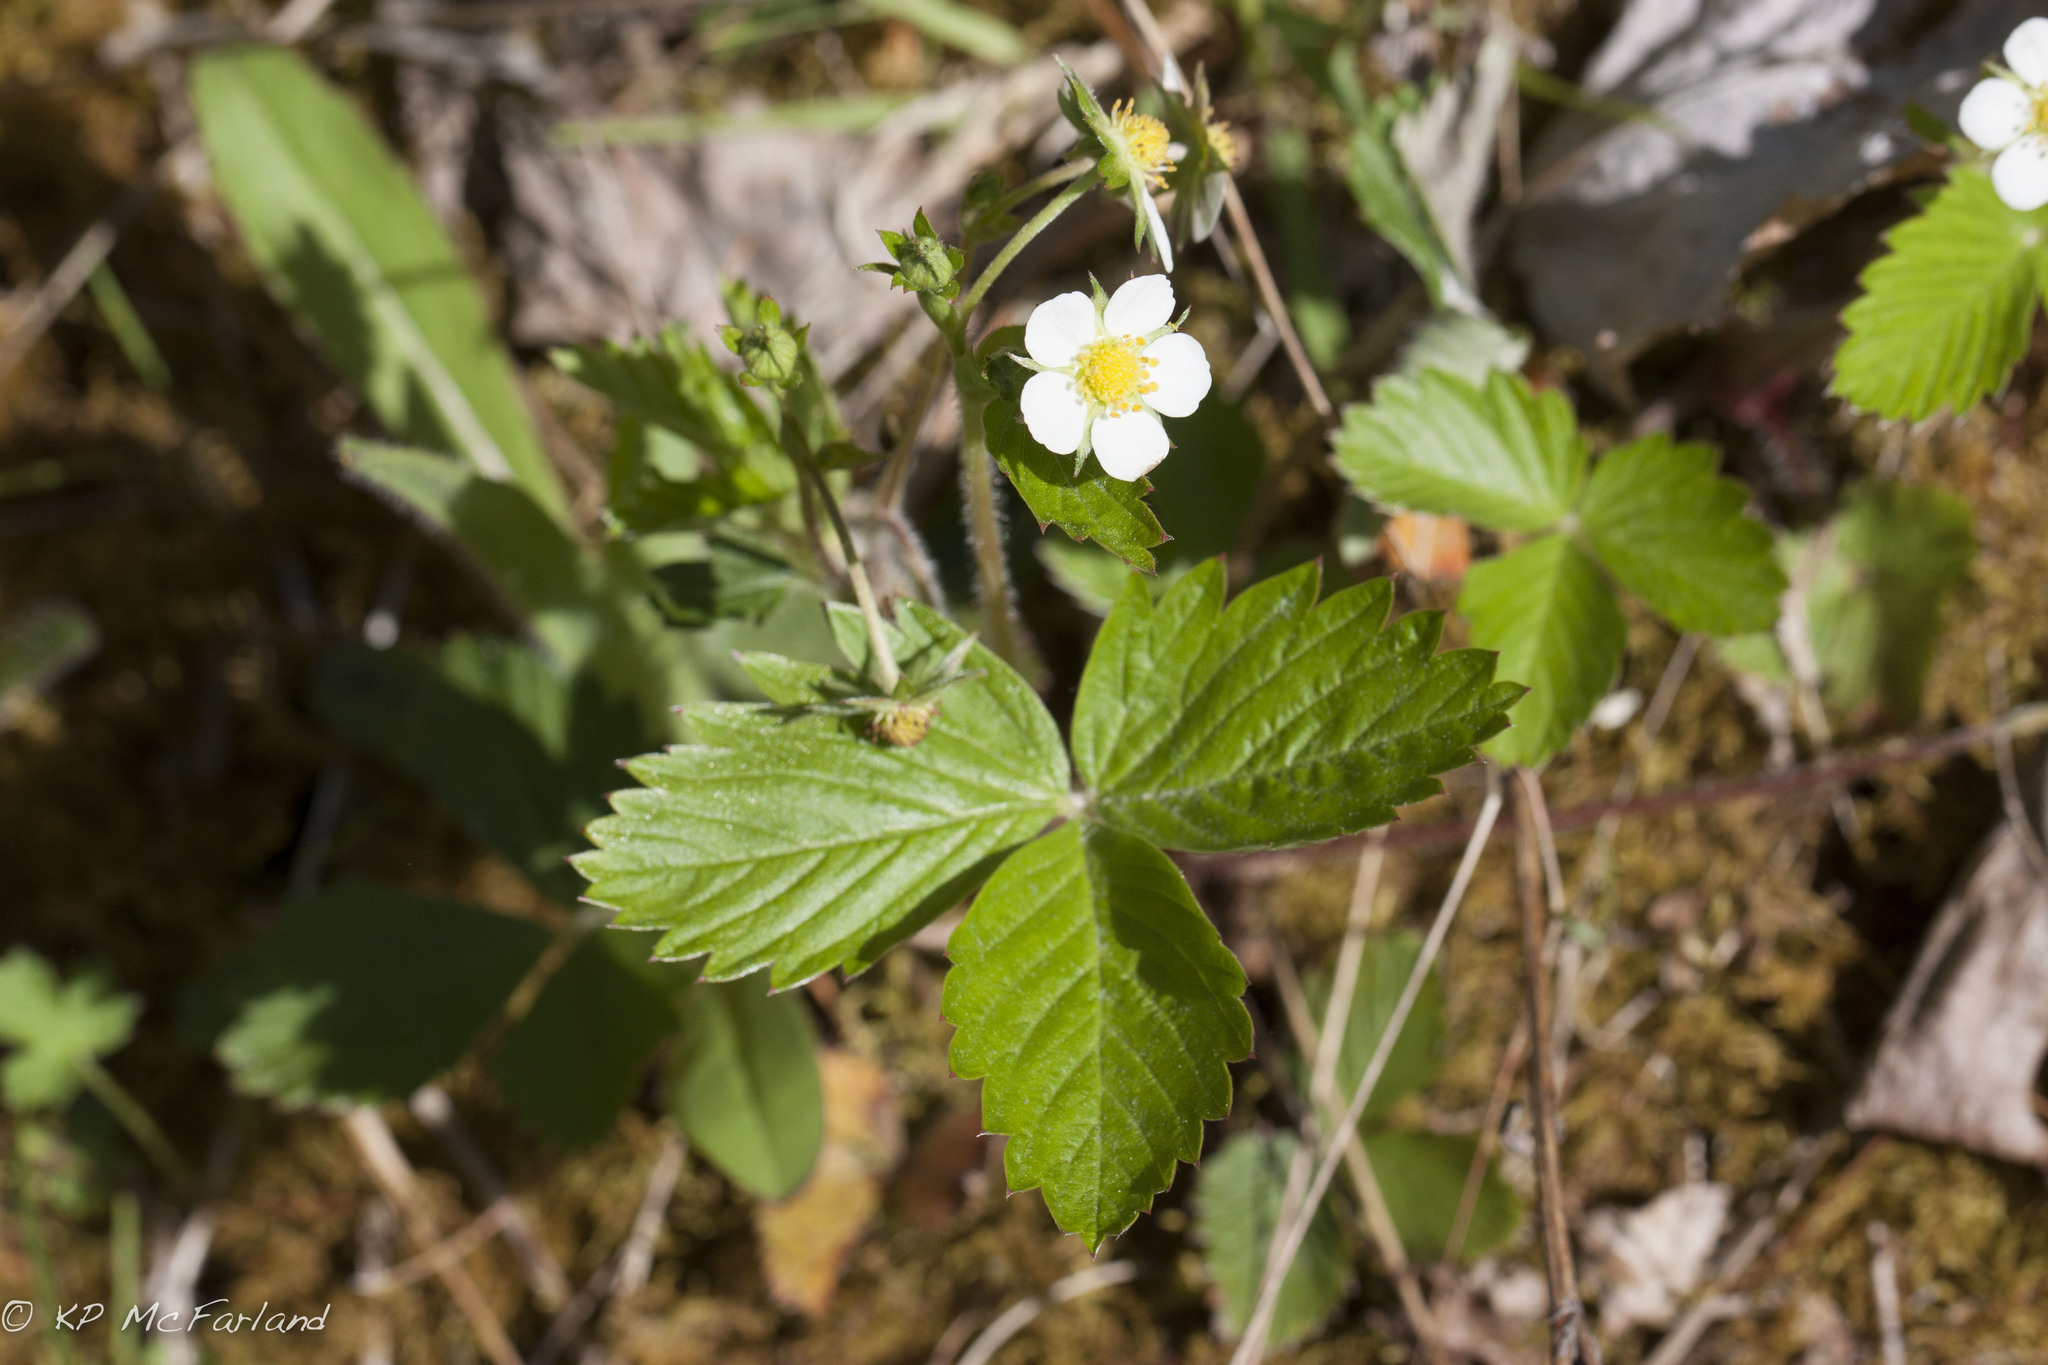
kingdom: Plantae
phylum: Tracheophyta
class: Magnoliopsida
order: Rosales
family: Rosaceae
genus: Fragaria
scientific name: Fragaria vesca
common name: Wild strawberry
